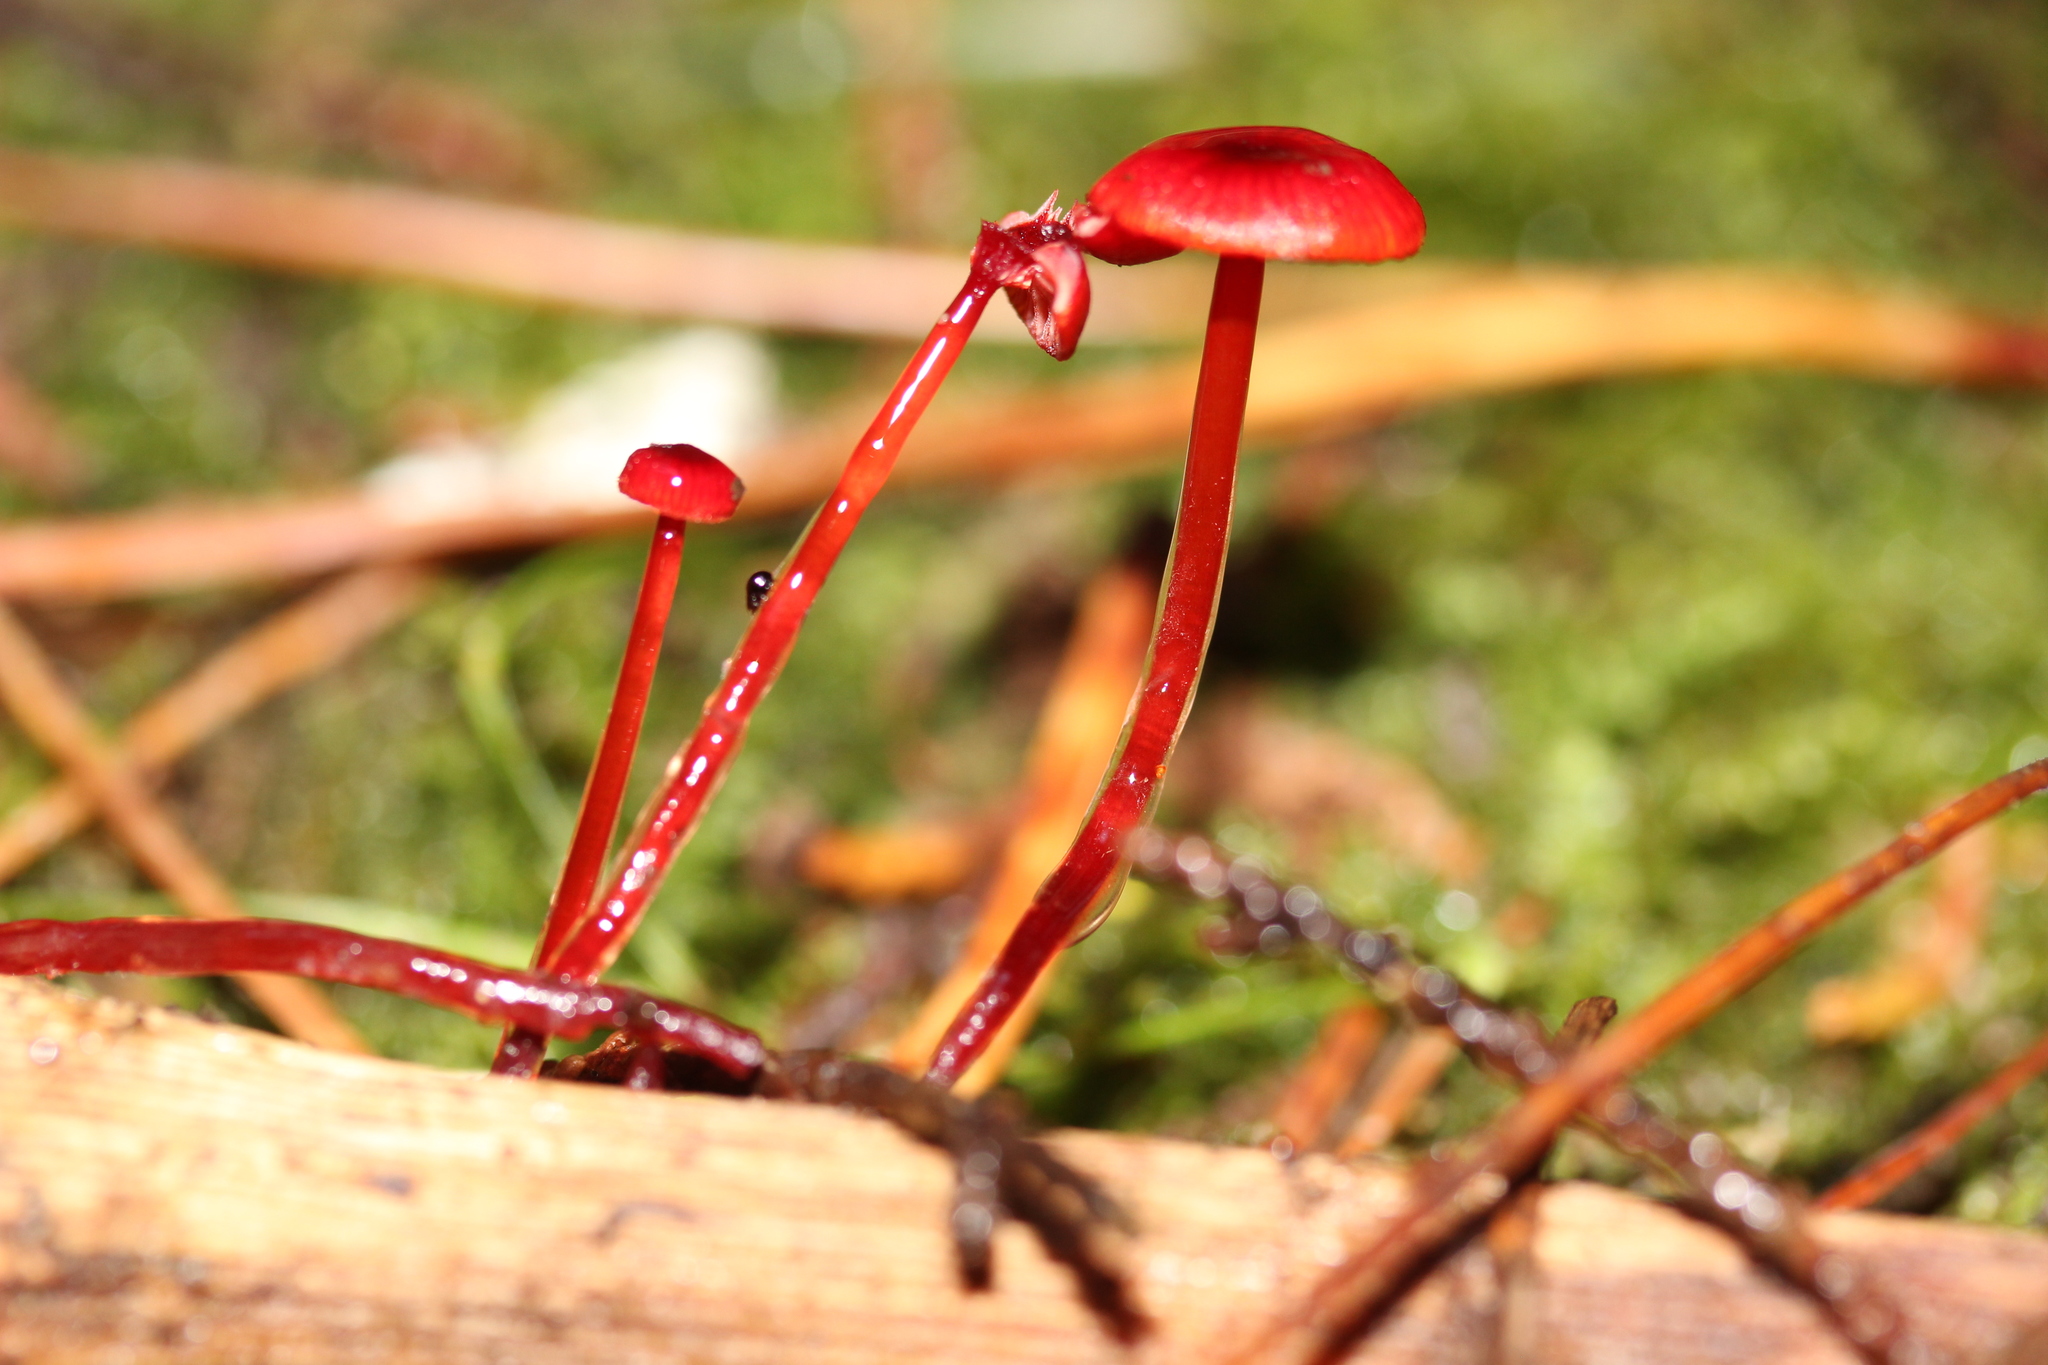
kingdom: Fungi
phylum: Basidiomycota
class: Agaricomycetes
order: Agaricales
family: Mycenaceae
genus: Cruentomycena
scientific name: Cruentomycena viscidocruenta
